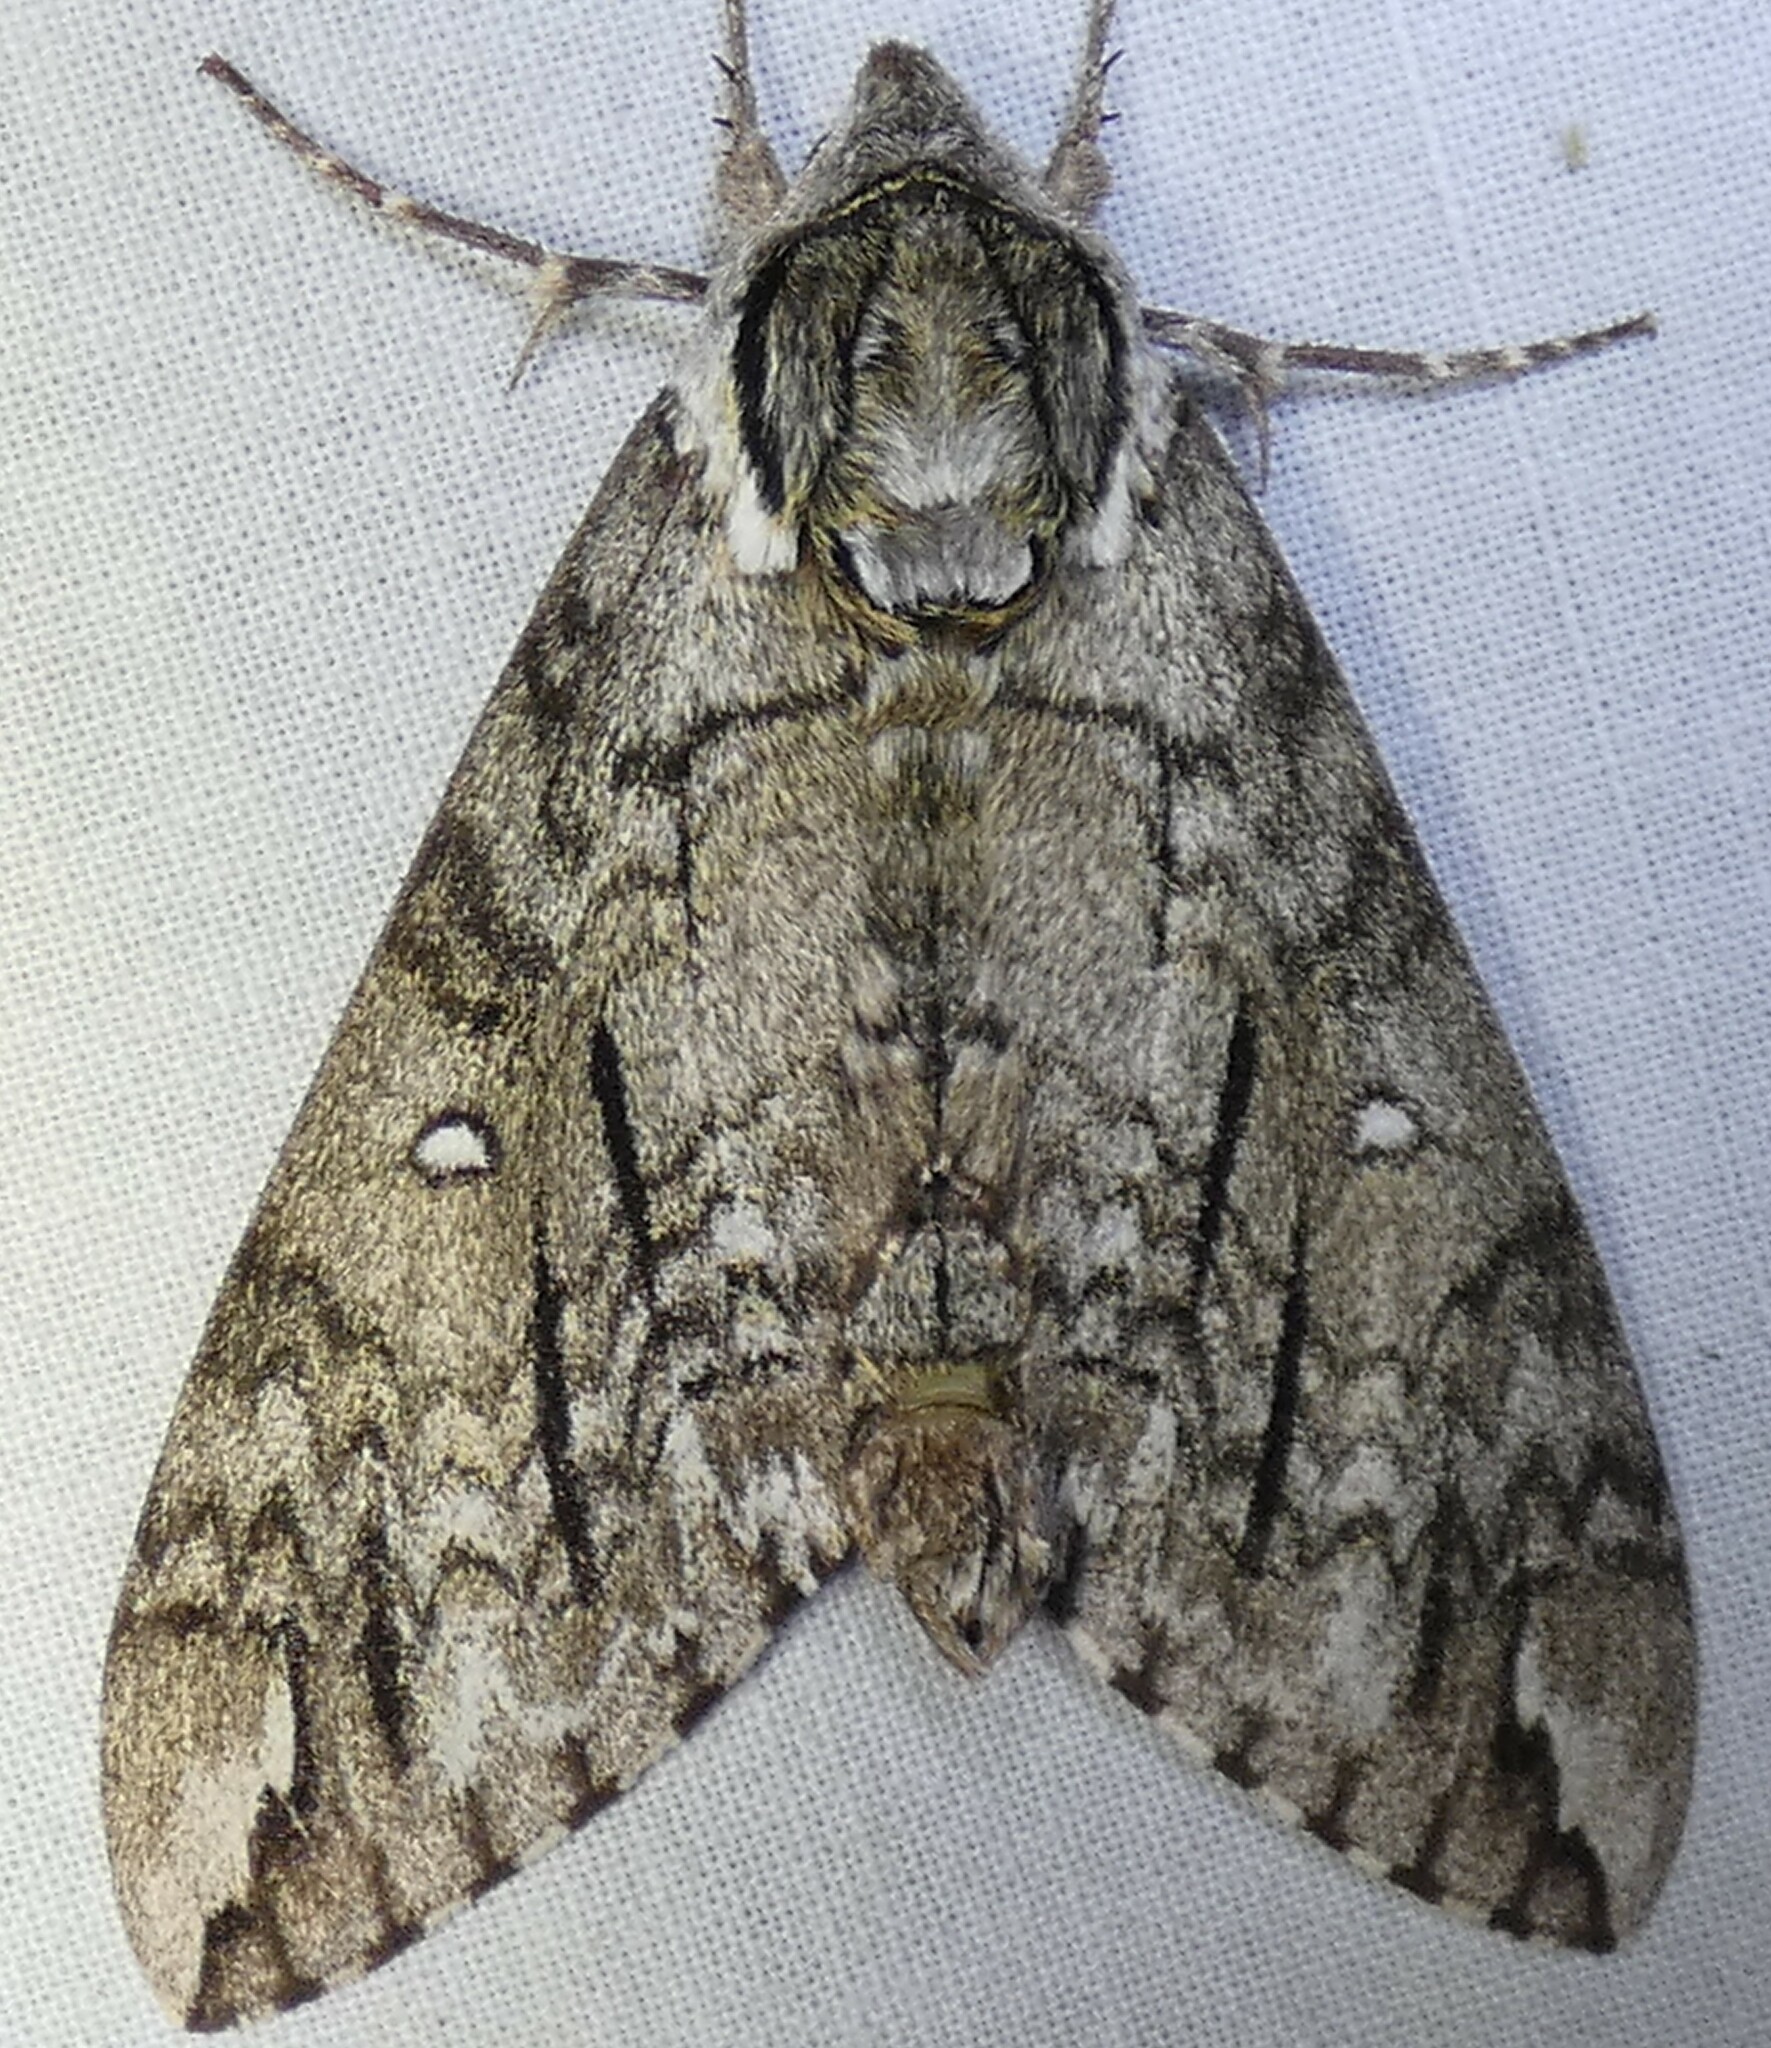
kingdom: Animalia
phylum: Arthropoda
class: Insecta
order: Lepidoptera
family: Sphingidae
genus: Ceratomia
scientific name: Ceratomia undulosa
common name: Waved sphinx
